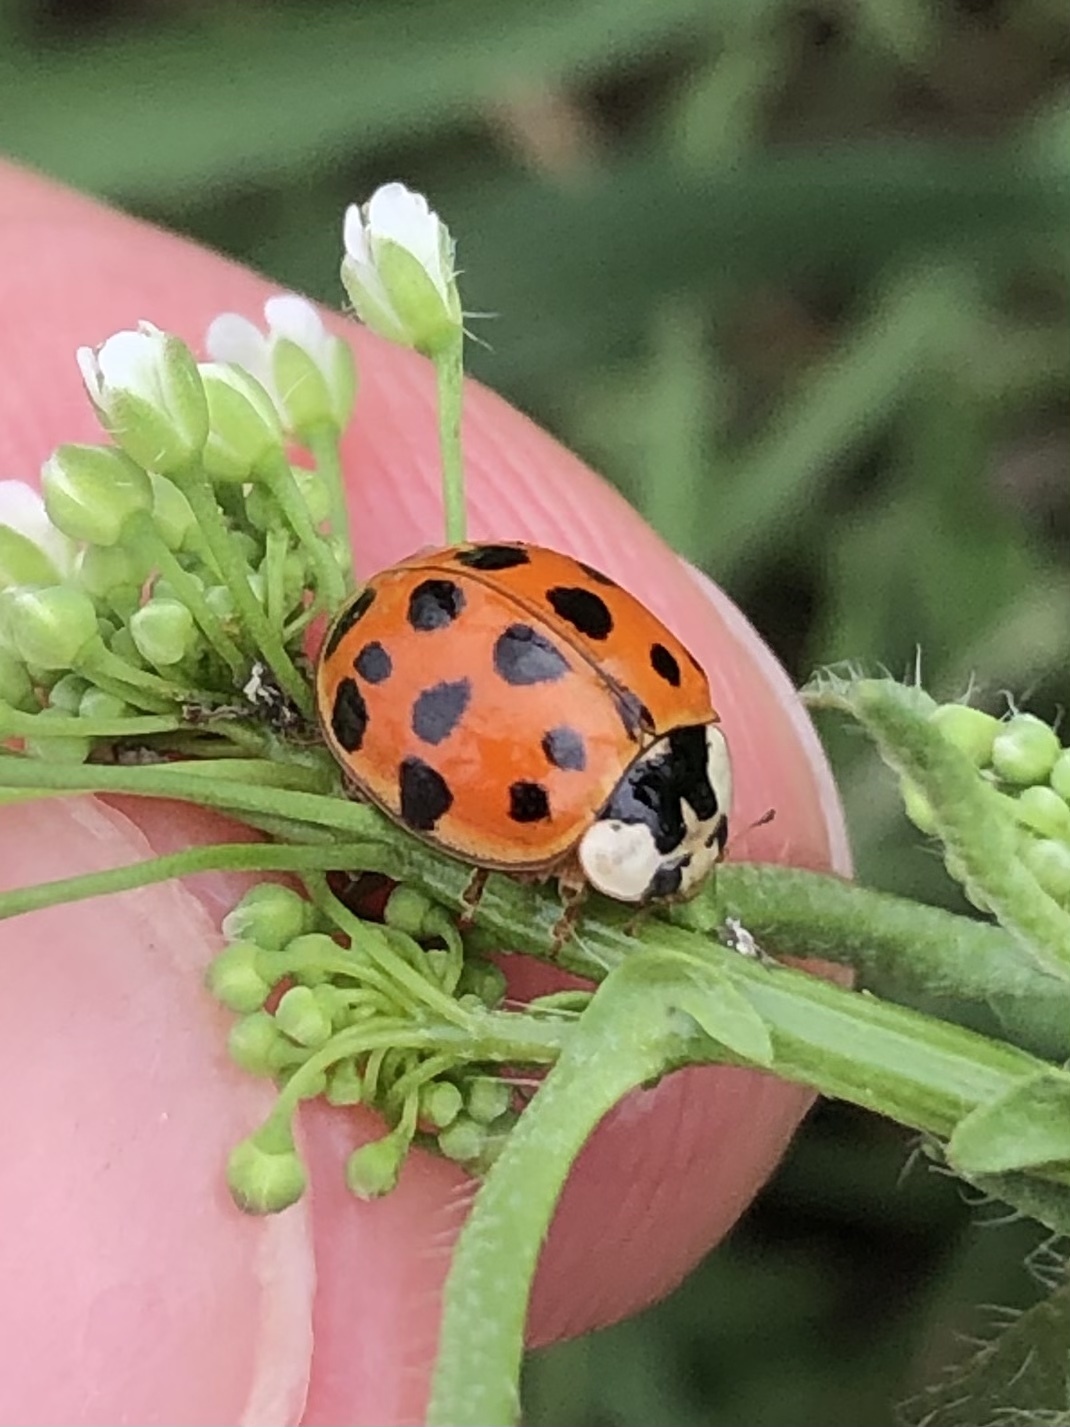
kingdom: Animalia
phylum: Arthropoda
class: Insecta
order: Coleoptera
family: Coccinellidae
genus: Harmonia
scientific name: Harmonia axyridis
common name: Harlequin ladybird
